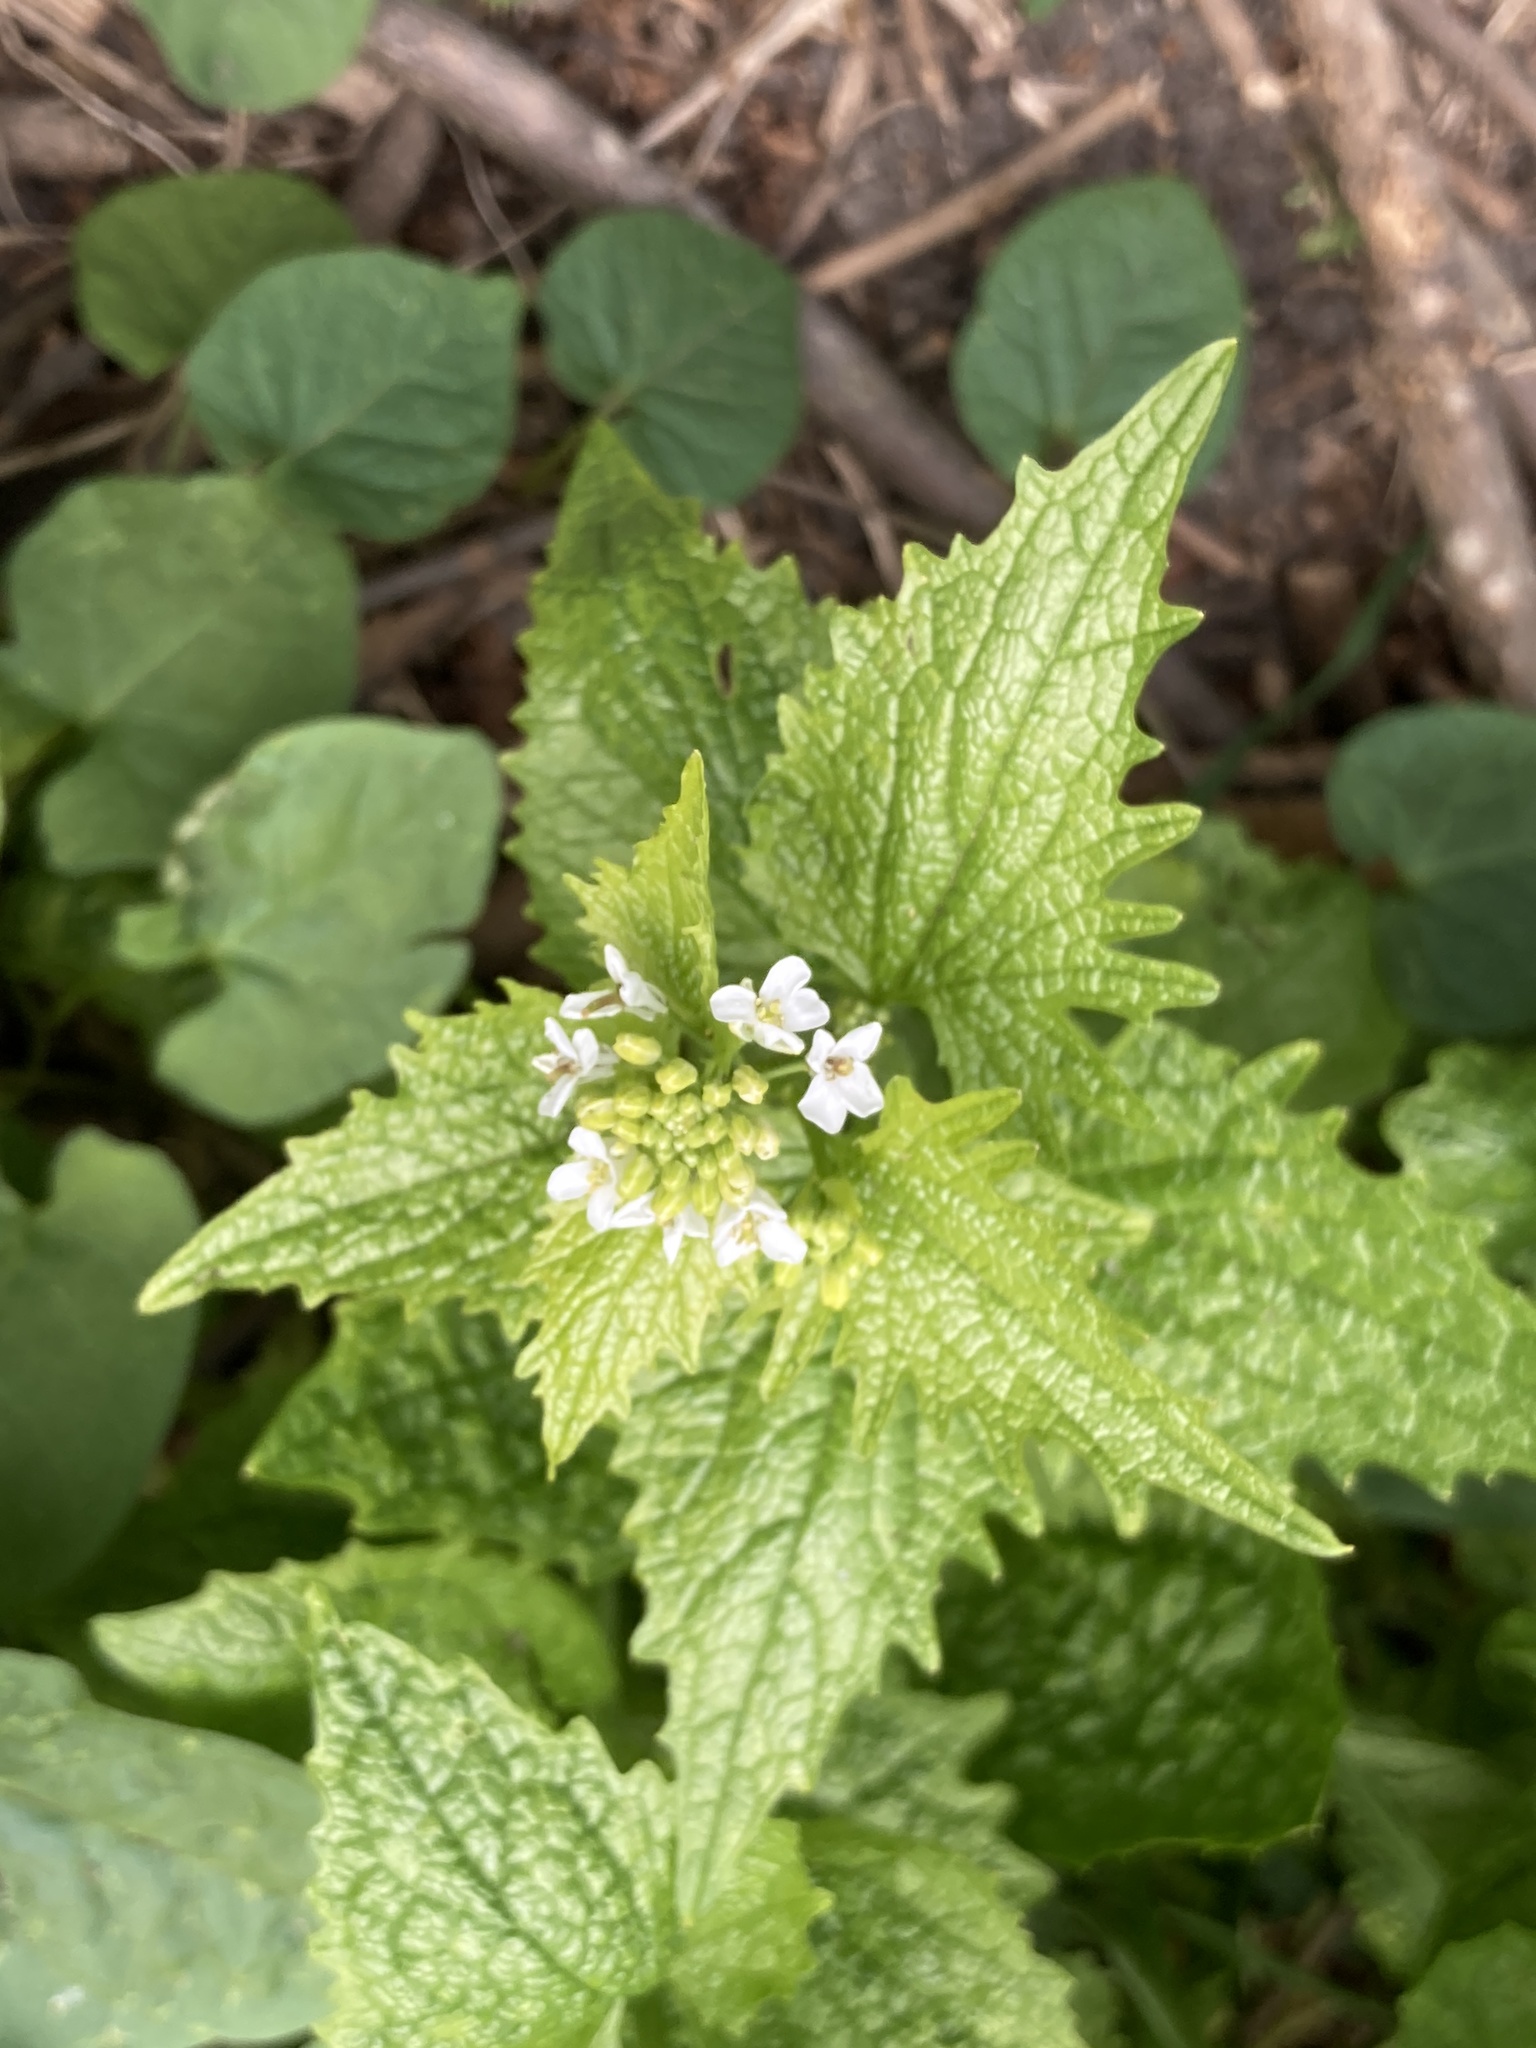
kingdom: Plantae
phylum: Tracheophyta
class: Magnoliopsida
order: Brassicales
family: Brassicaceae
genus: Alliaria
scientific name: Alliaria petiolata
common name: Garlic mustard
